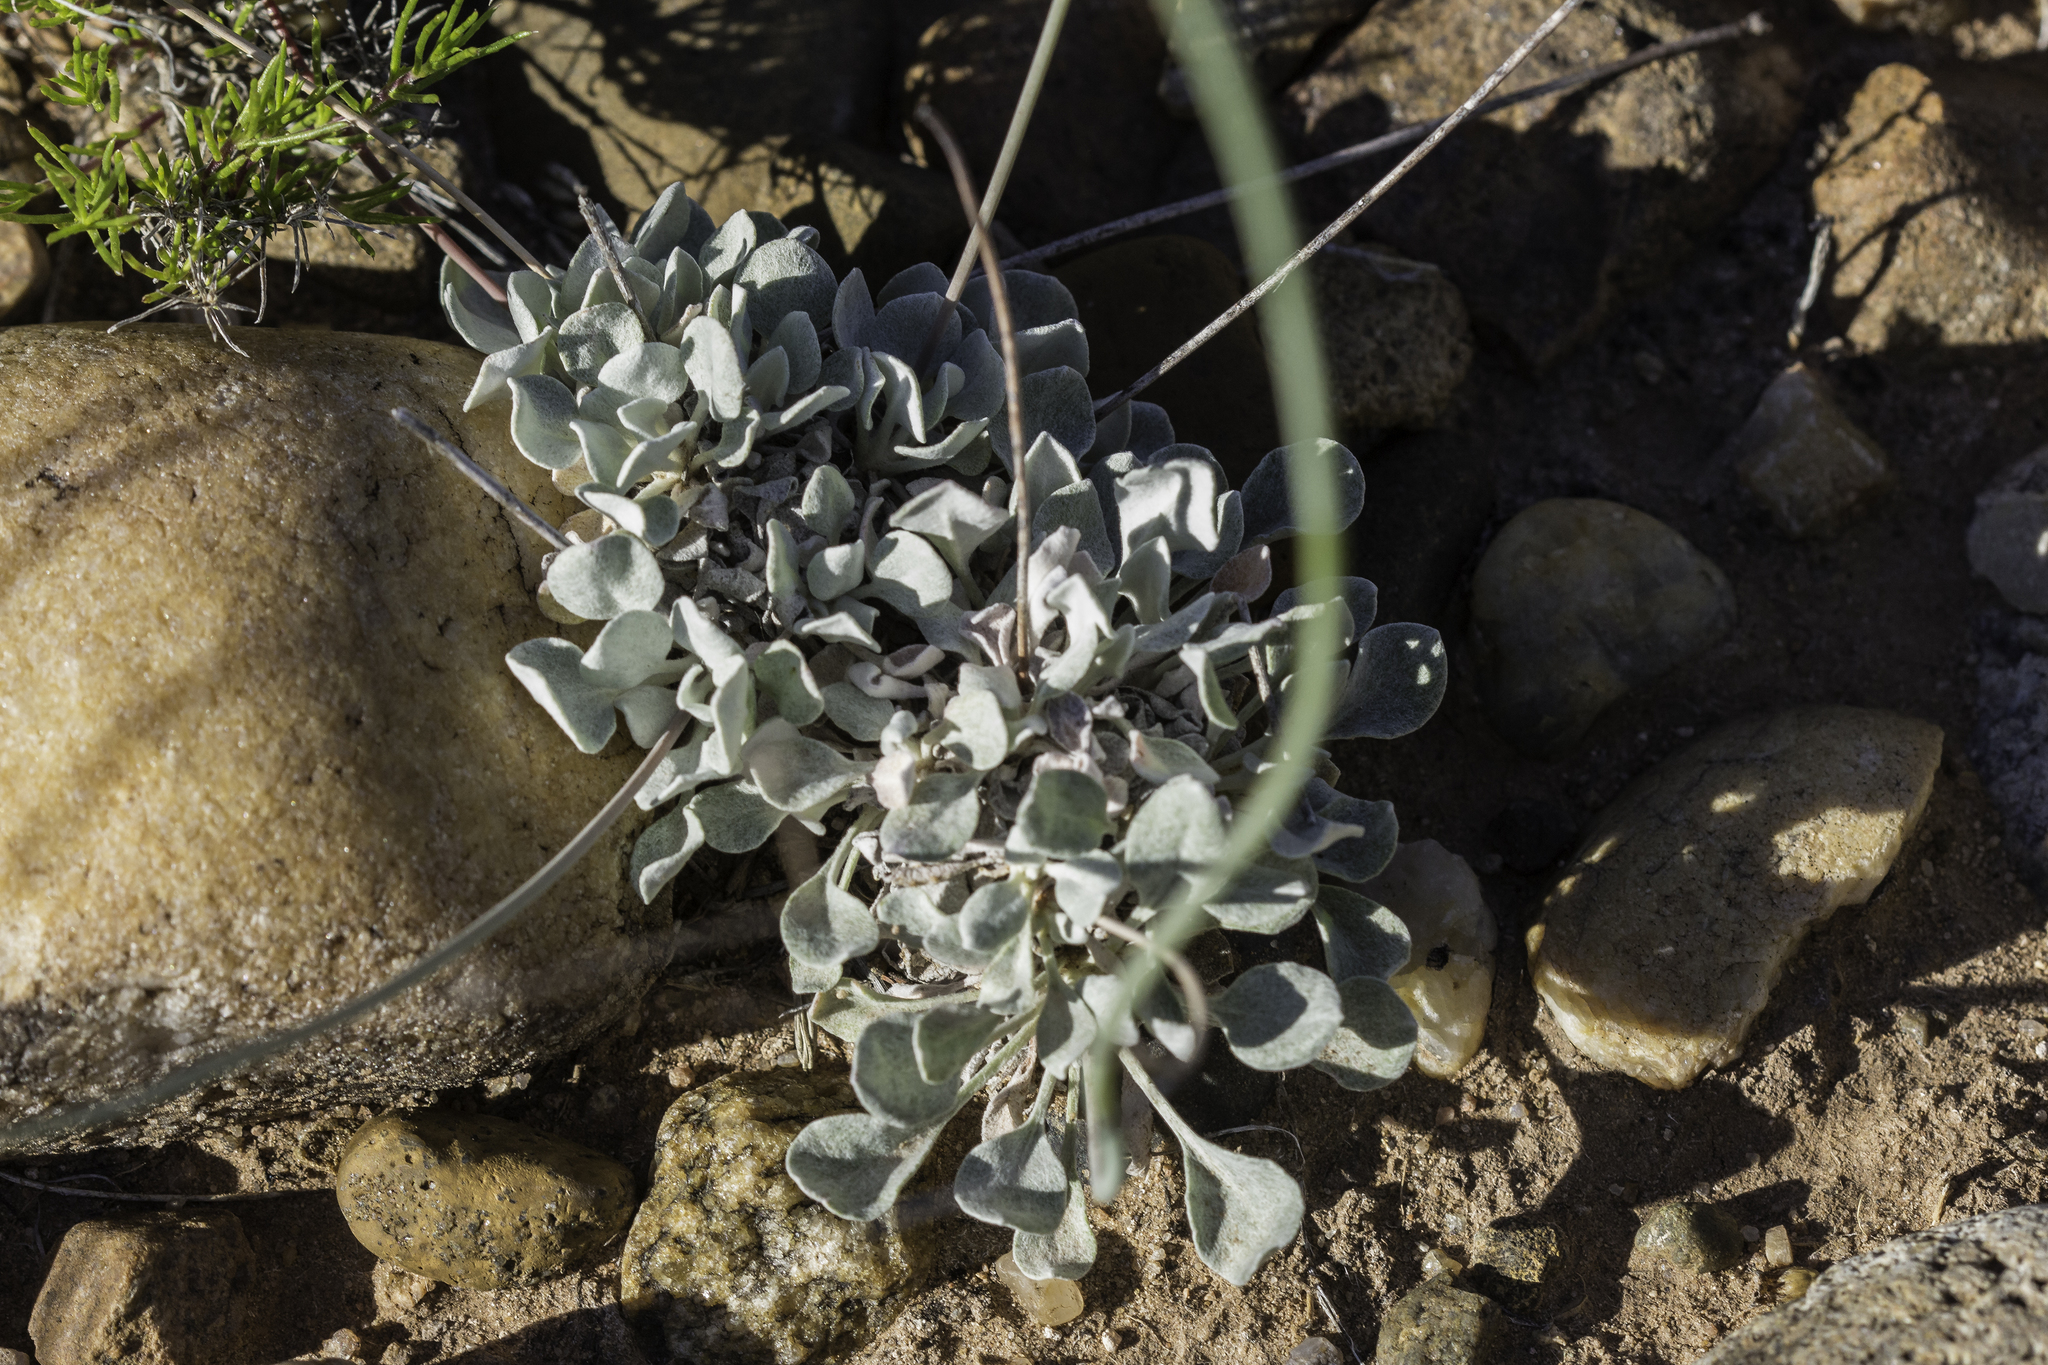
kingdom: Plantae
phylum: Tracheophyta
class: Magnoliopsida
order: Caryophyllales
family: Polygonaceae
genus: Eriogonum
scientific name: Eriogonum tenellum
